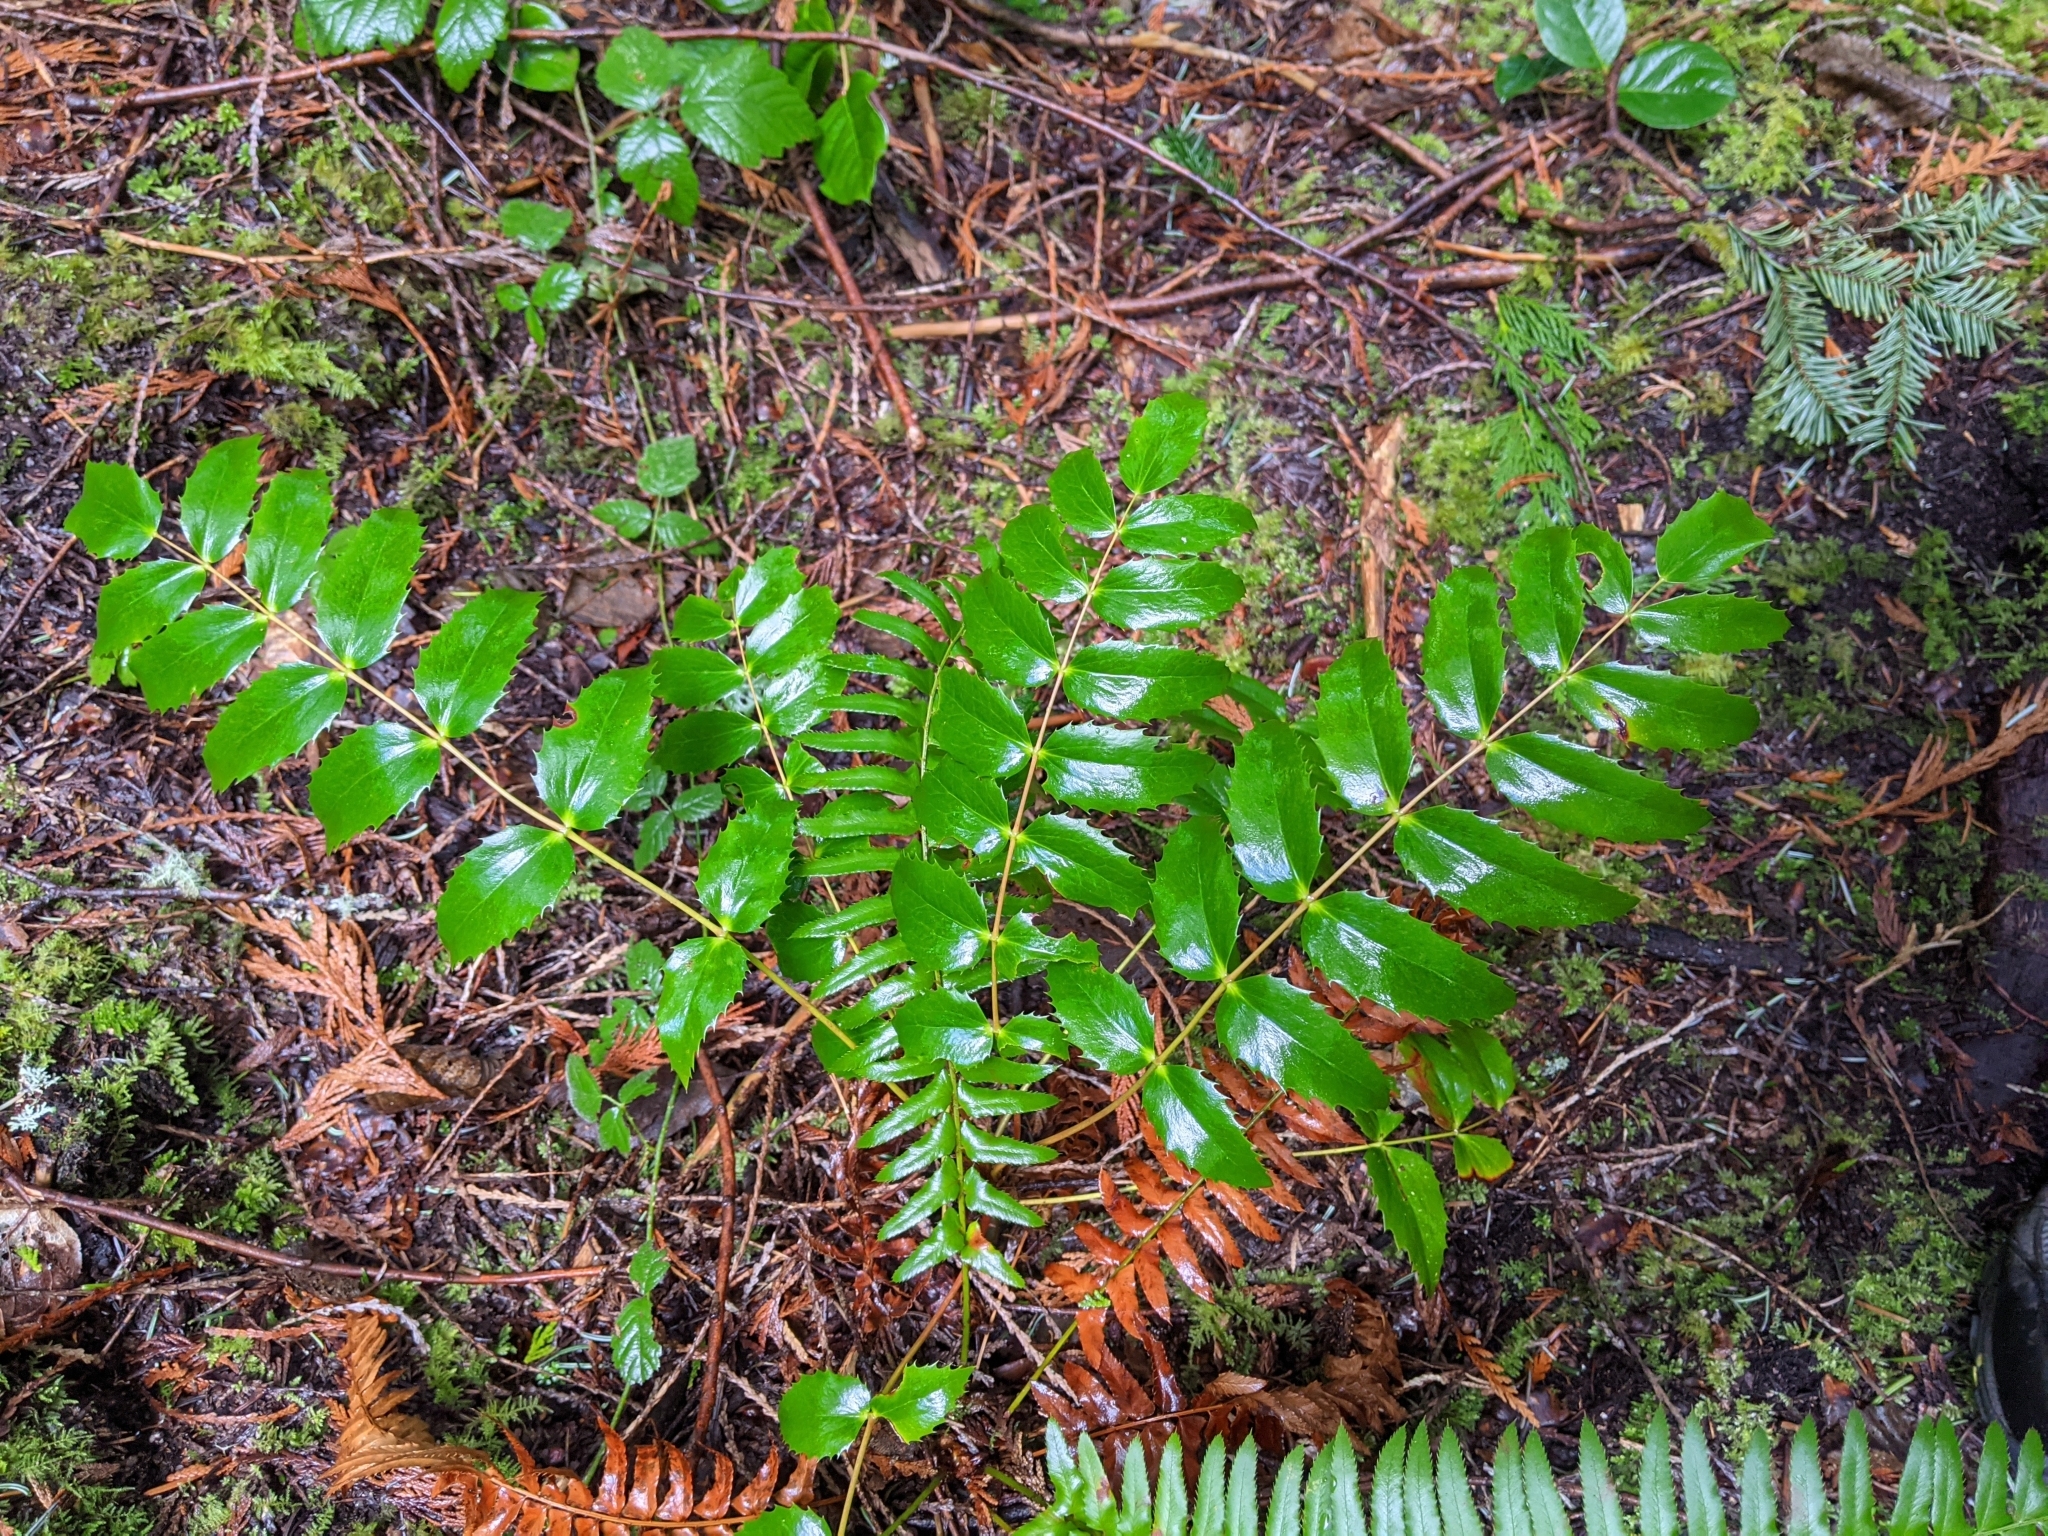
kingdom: Plantae
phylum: Tracheophyta
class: Magnoliopsida
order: Ranunculales
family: Berberidaceae
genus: Mahonia
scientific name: Mahonia nervosa
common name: Cascade oregon-grape
